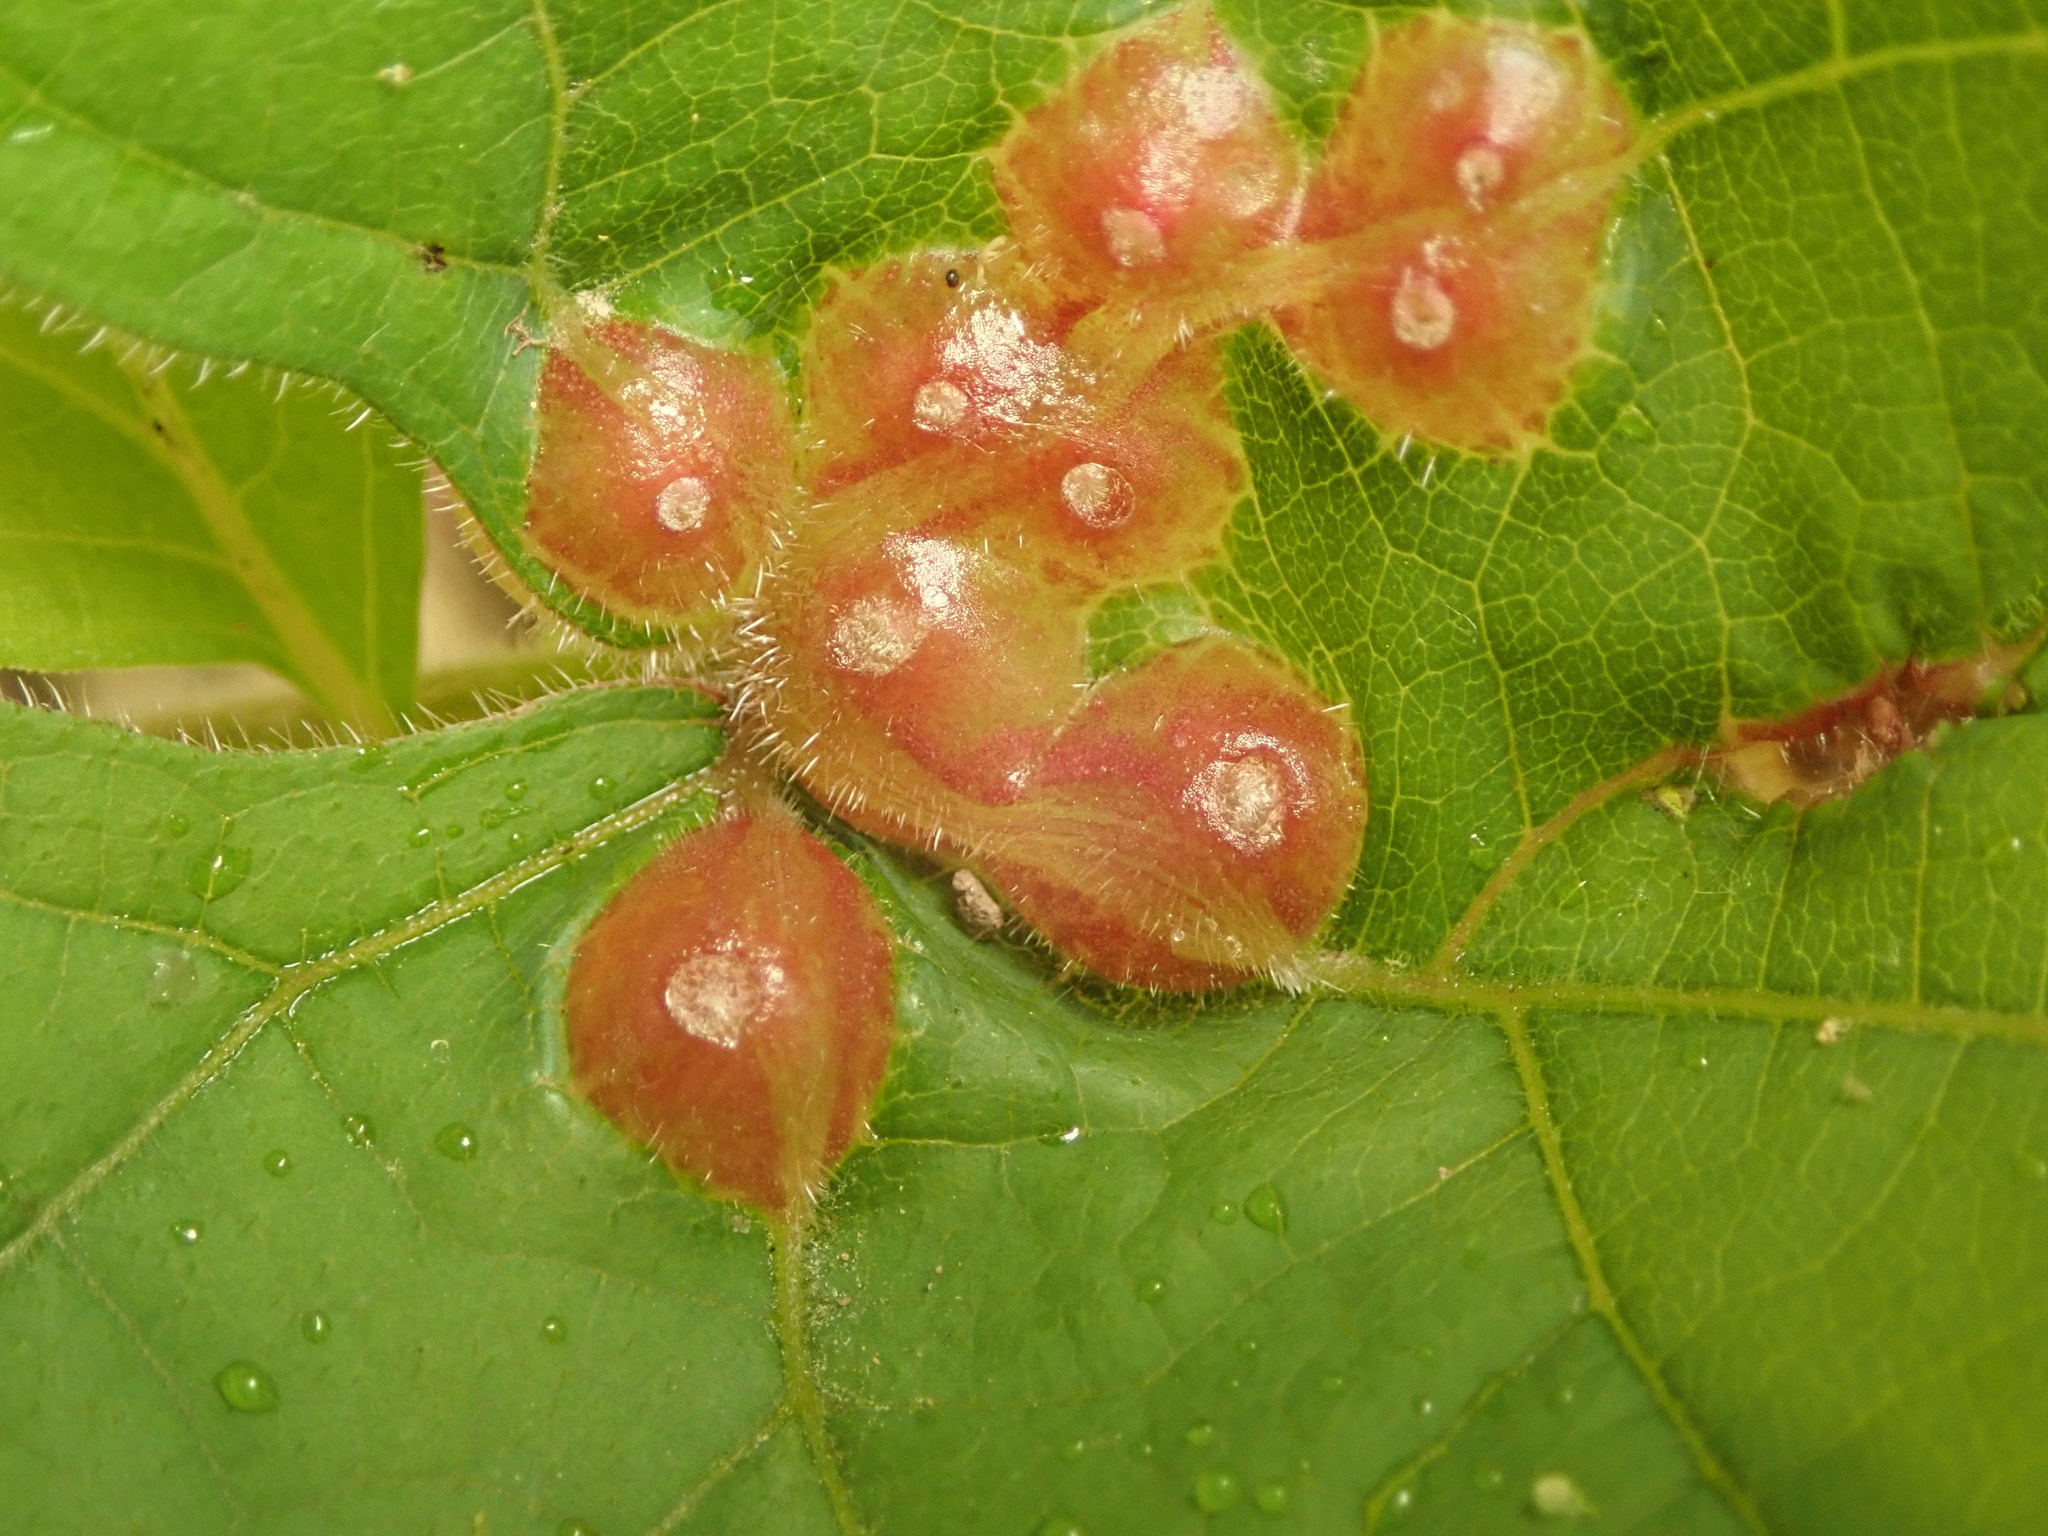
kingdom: Animalia
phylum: Arthropoda
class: Insecta
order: Diptera
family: Cecidomyiidae
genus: Vitisiella
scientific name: Vitisiella brevicauda
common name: Grape tumid gallmaker midge
